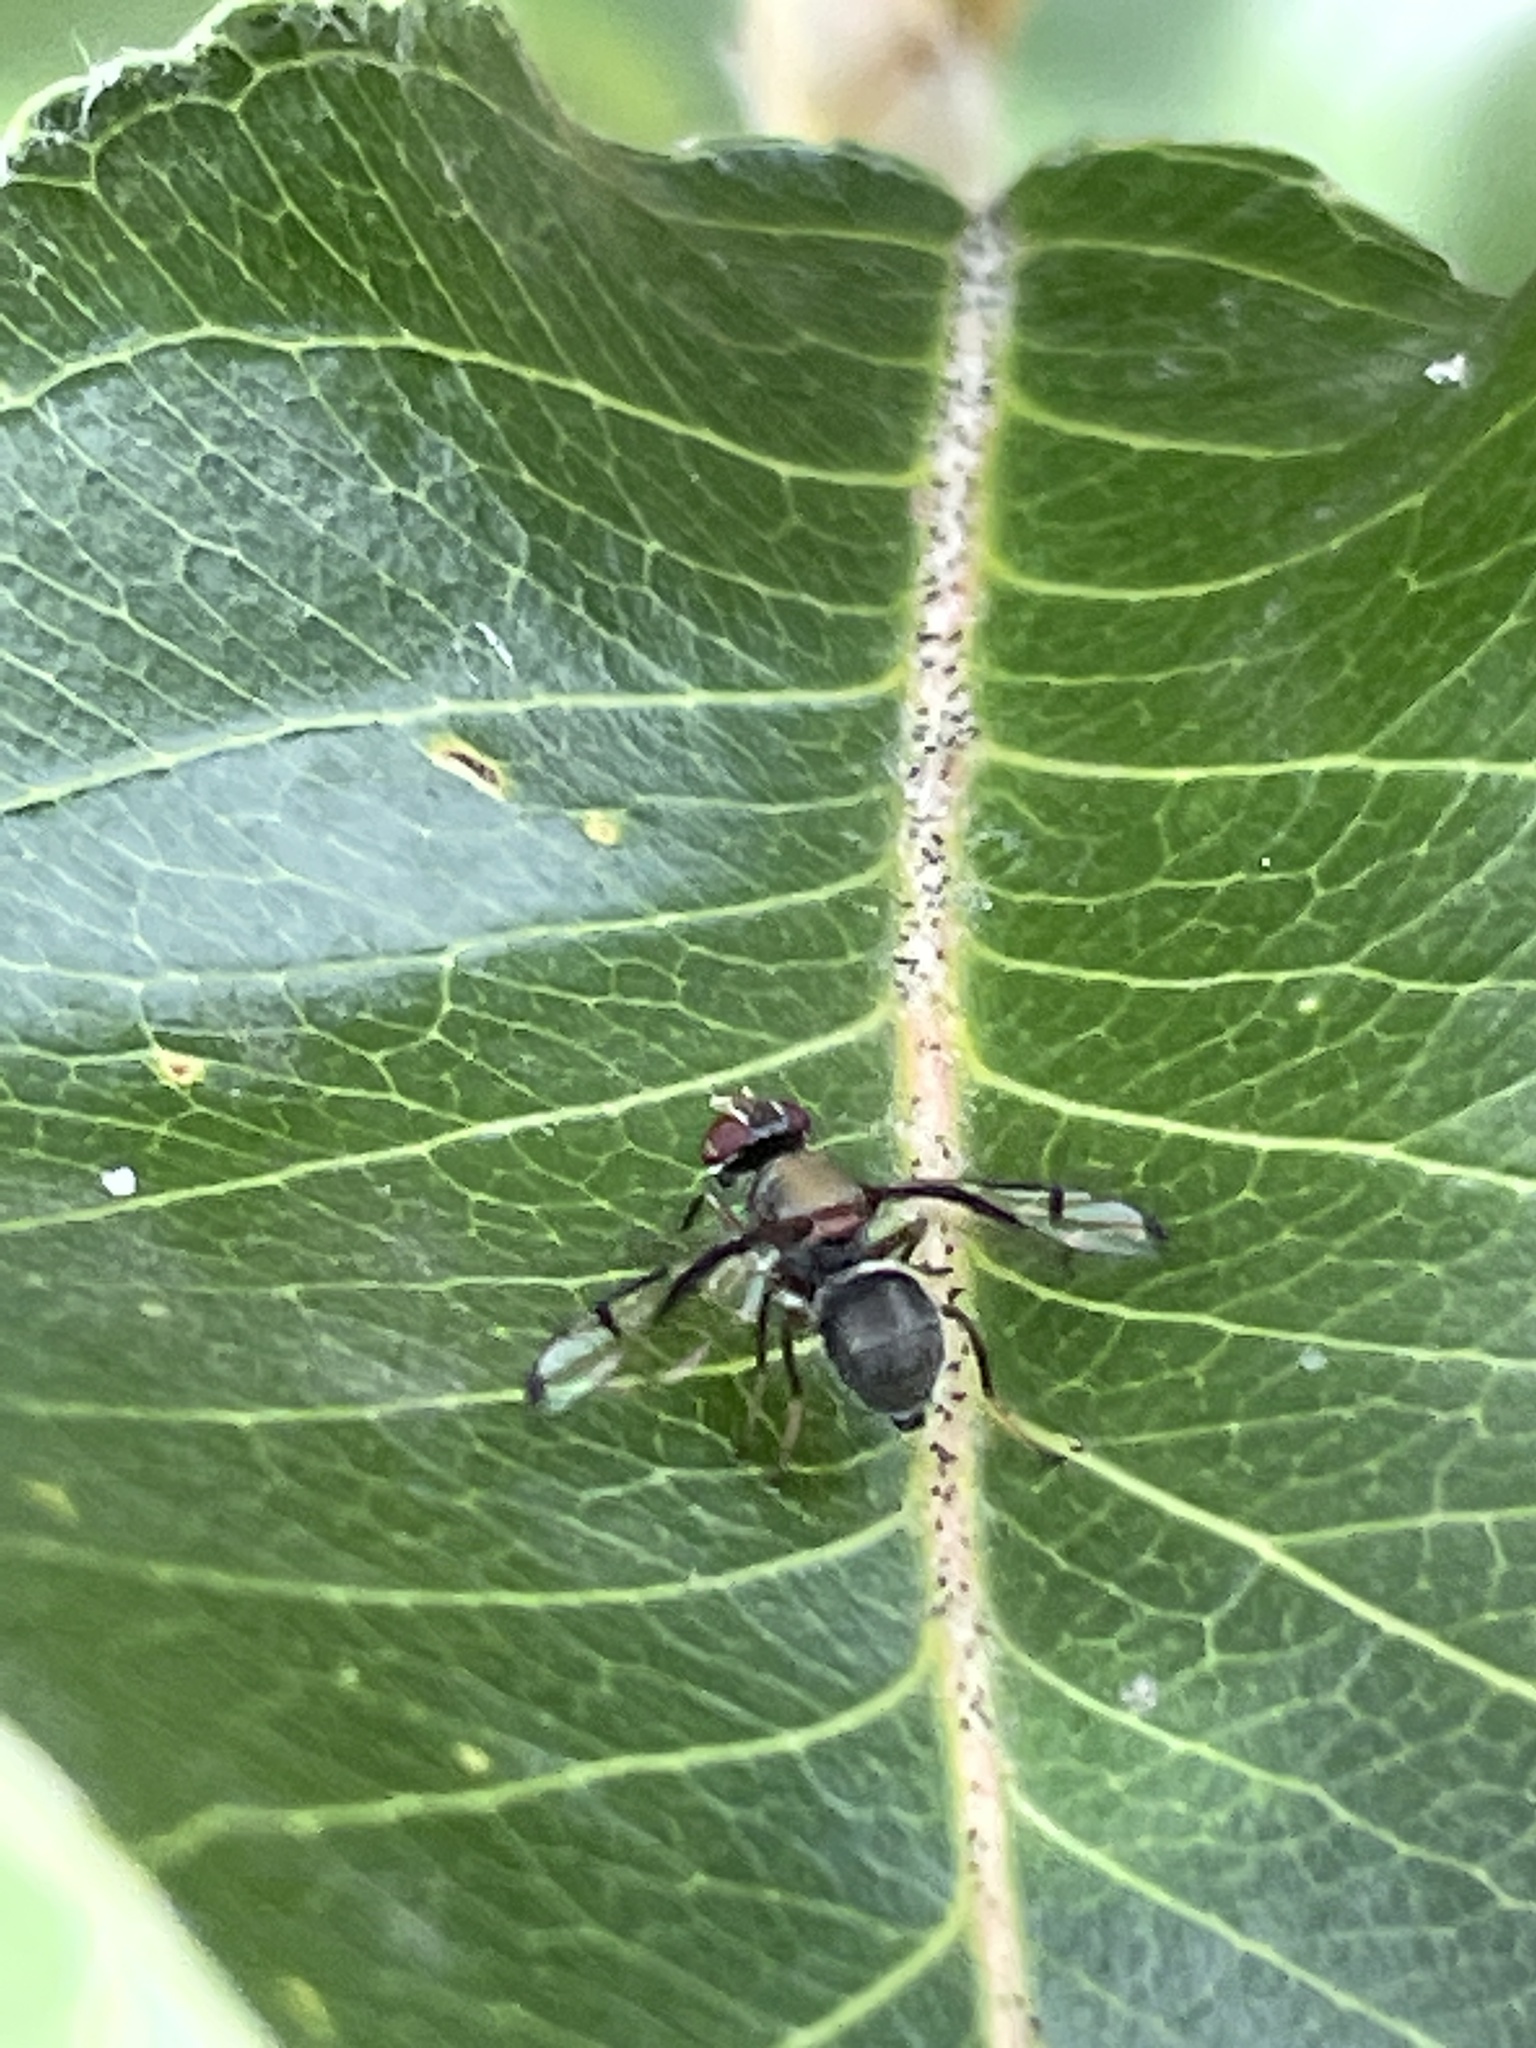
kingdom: Animalia
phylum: Arthropoda
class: Insecta
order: Diptera
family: Platystomatidae
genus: Pogonortalis
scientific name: Pogonortalis doclea
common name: Boatman fly
